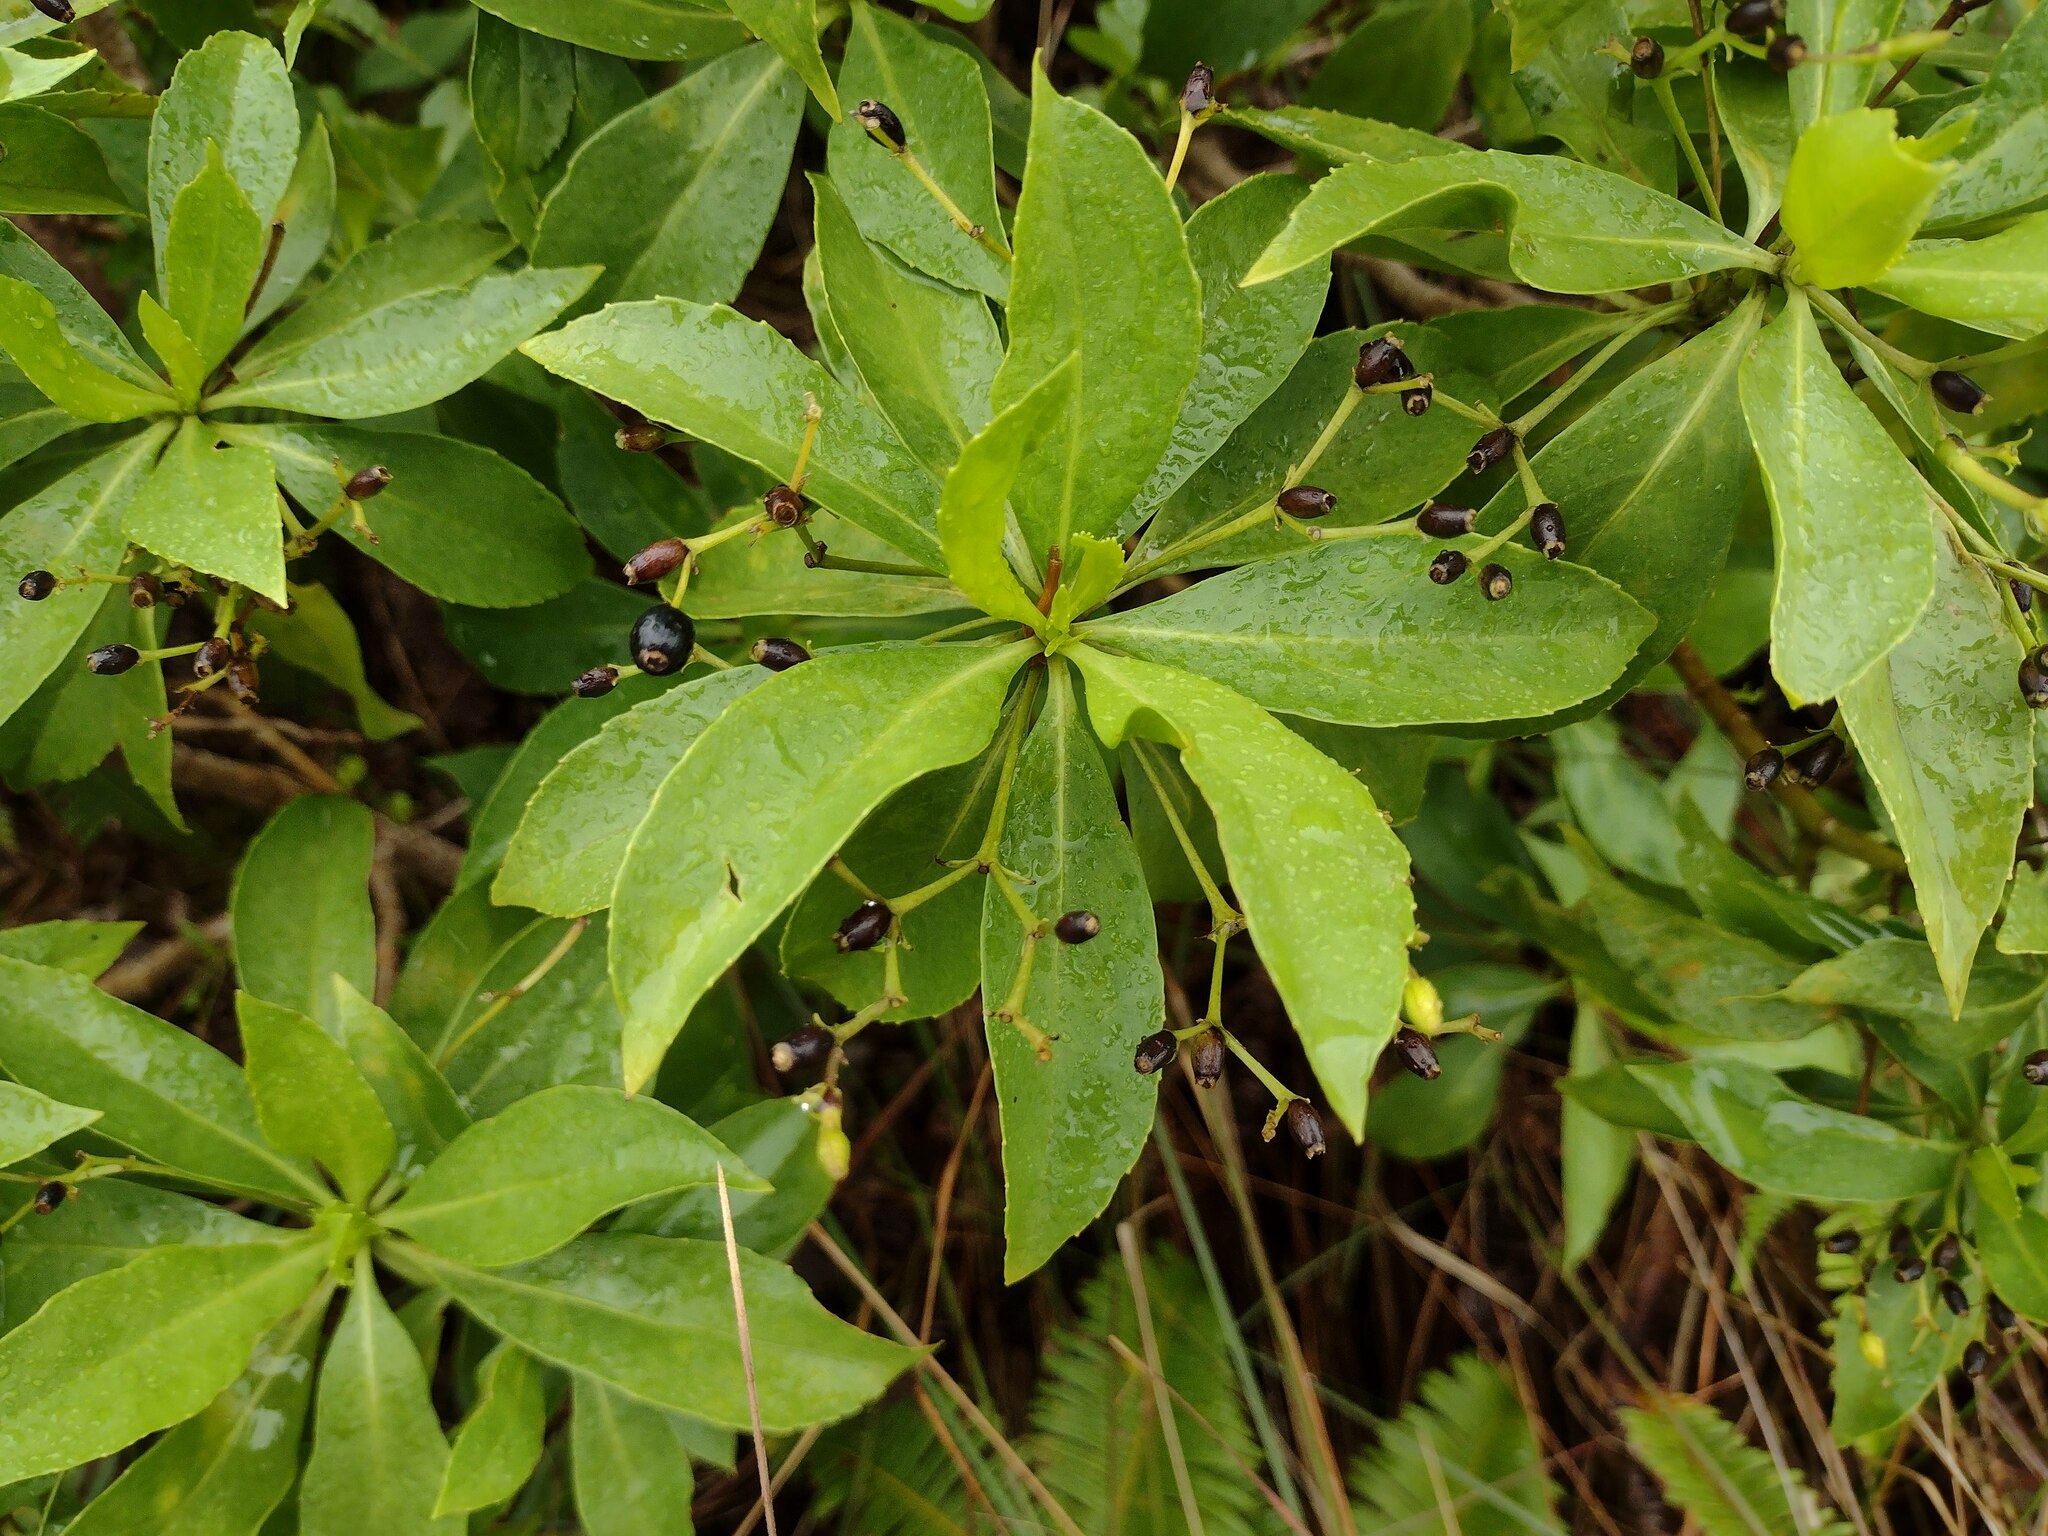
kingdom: Plantae
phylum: Tracheophyta
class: Magnoliopsida
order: Asterales
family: Goodeniaceae
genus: Scaevola
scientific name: Scaevola gaudichaudiana
